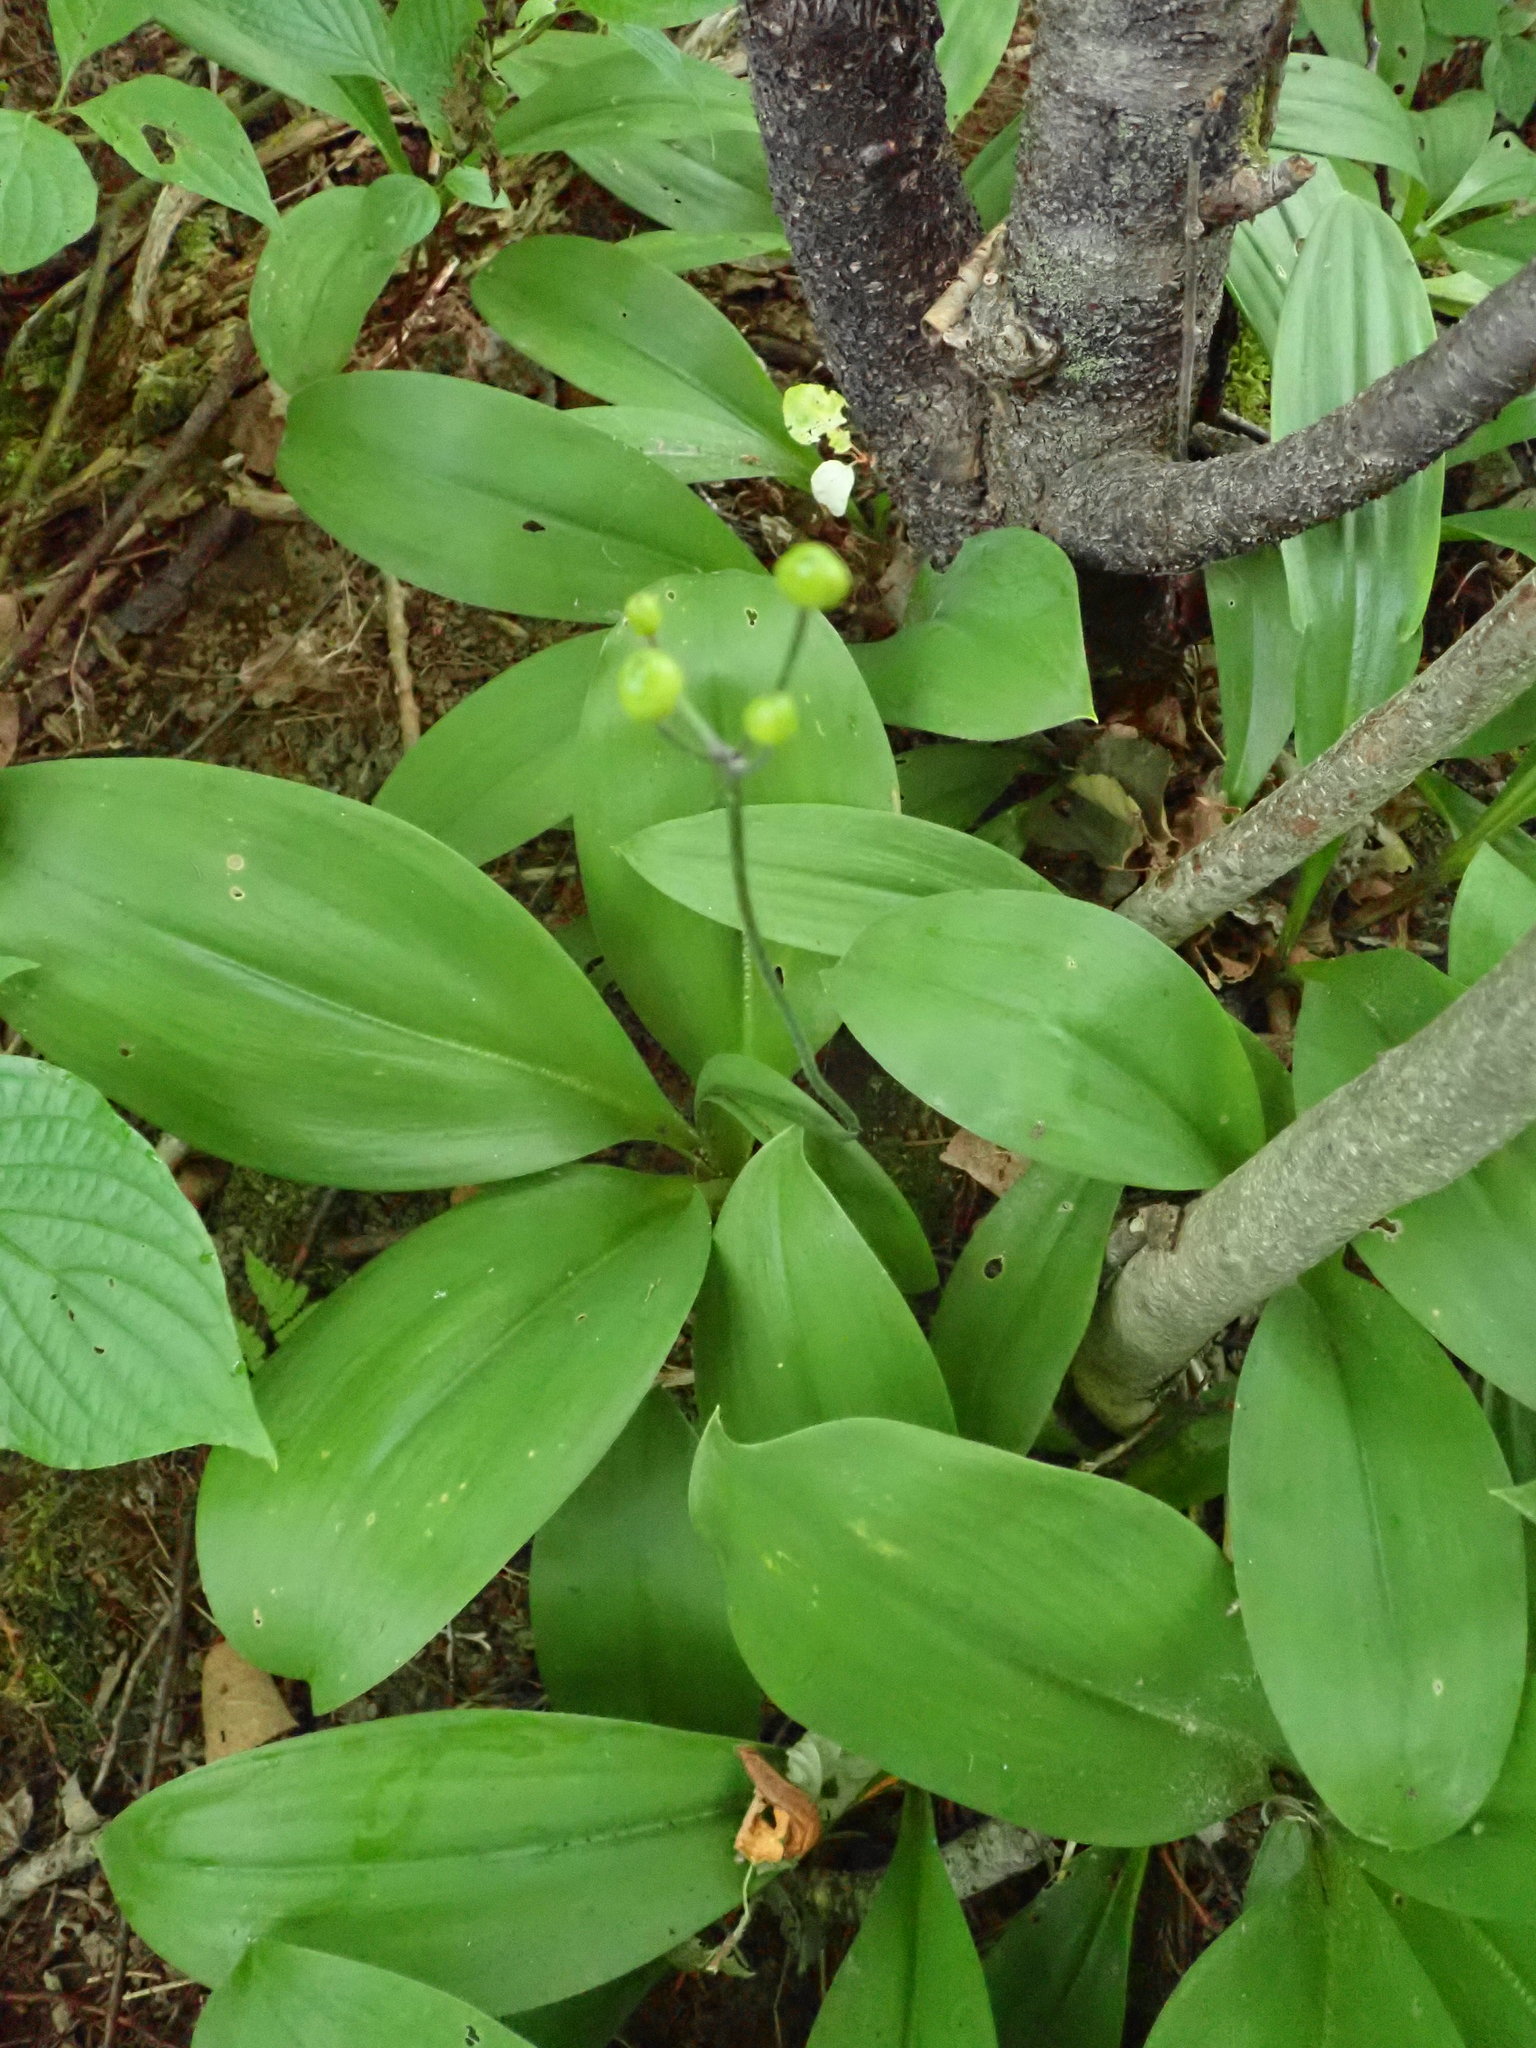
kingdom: Plantae
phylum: Tracheophyta
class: Liliopsida
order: Liliales
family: Liliaceae
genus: Clintonia
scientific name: Clintonia borealis
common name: Yellow clintonia
